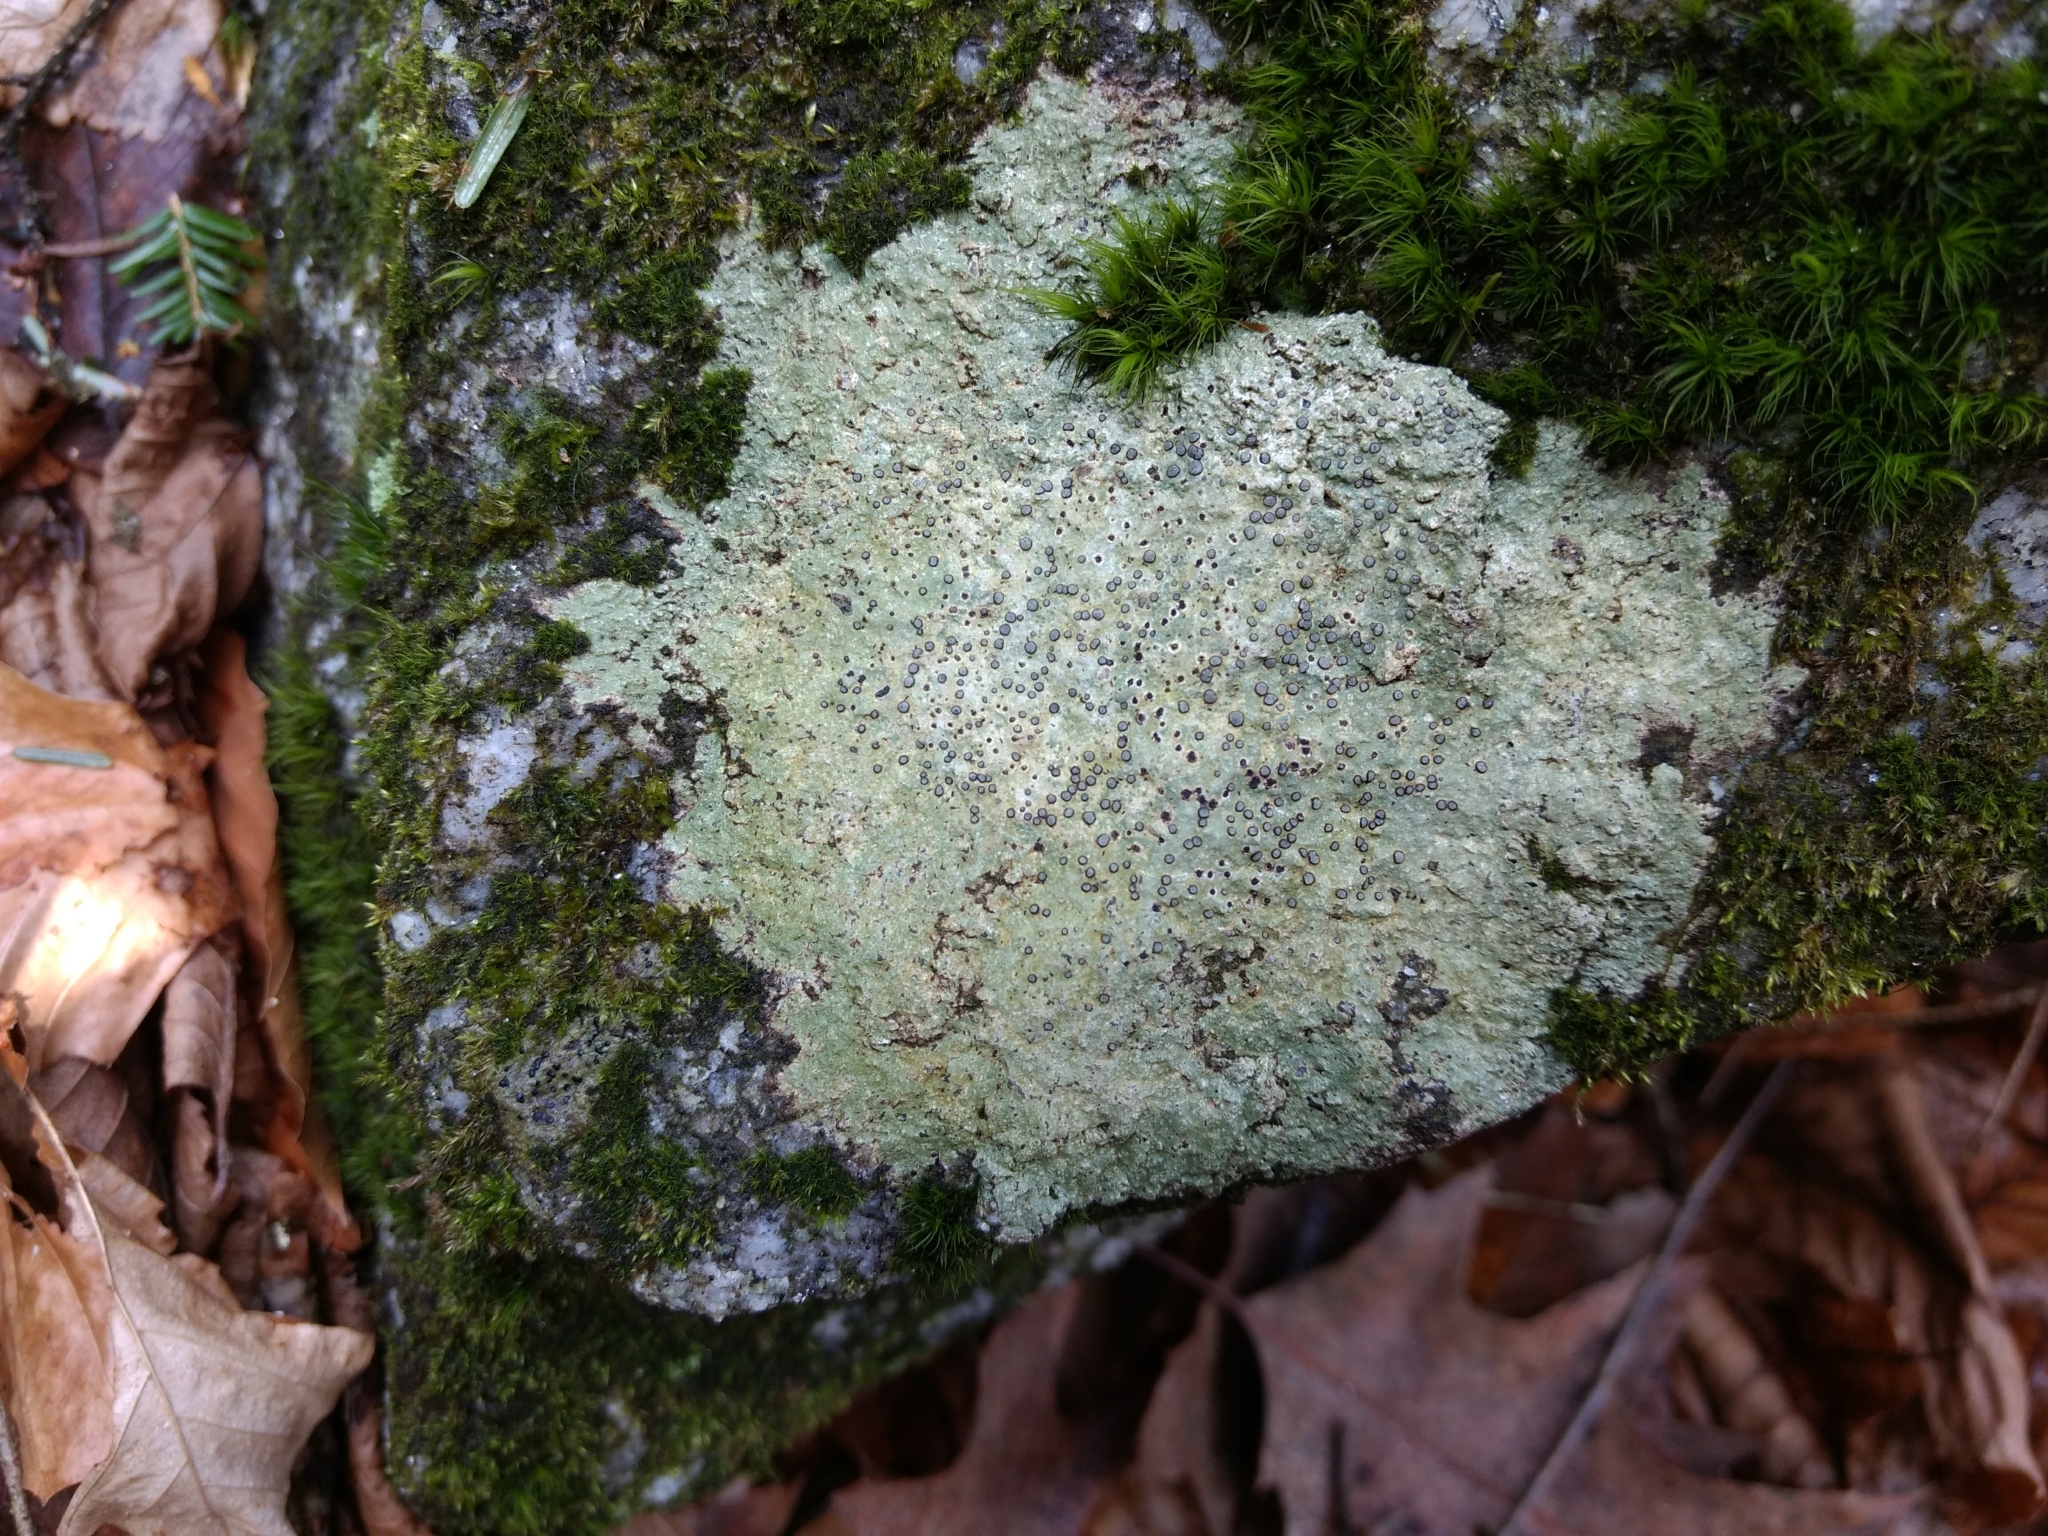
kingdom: Fungi
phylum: Ascomycota
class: Lecanoromycetes
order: Lecideales
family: Lecideaceae
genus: Porpidia
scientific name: Porpidia albocaerulescens
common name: Smokey-eyed boulder lichen
